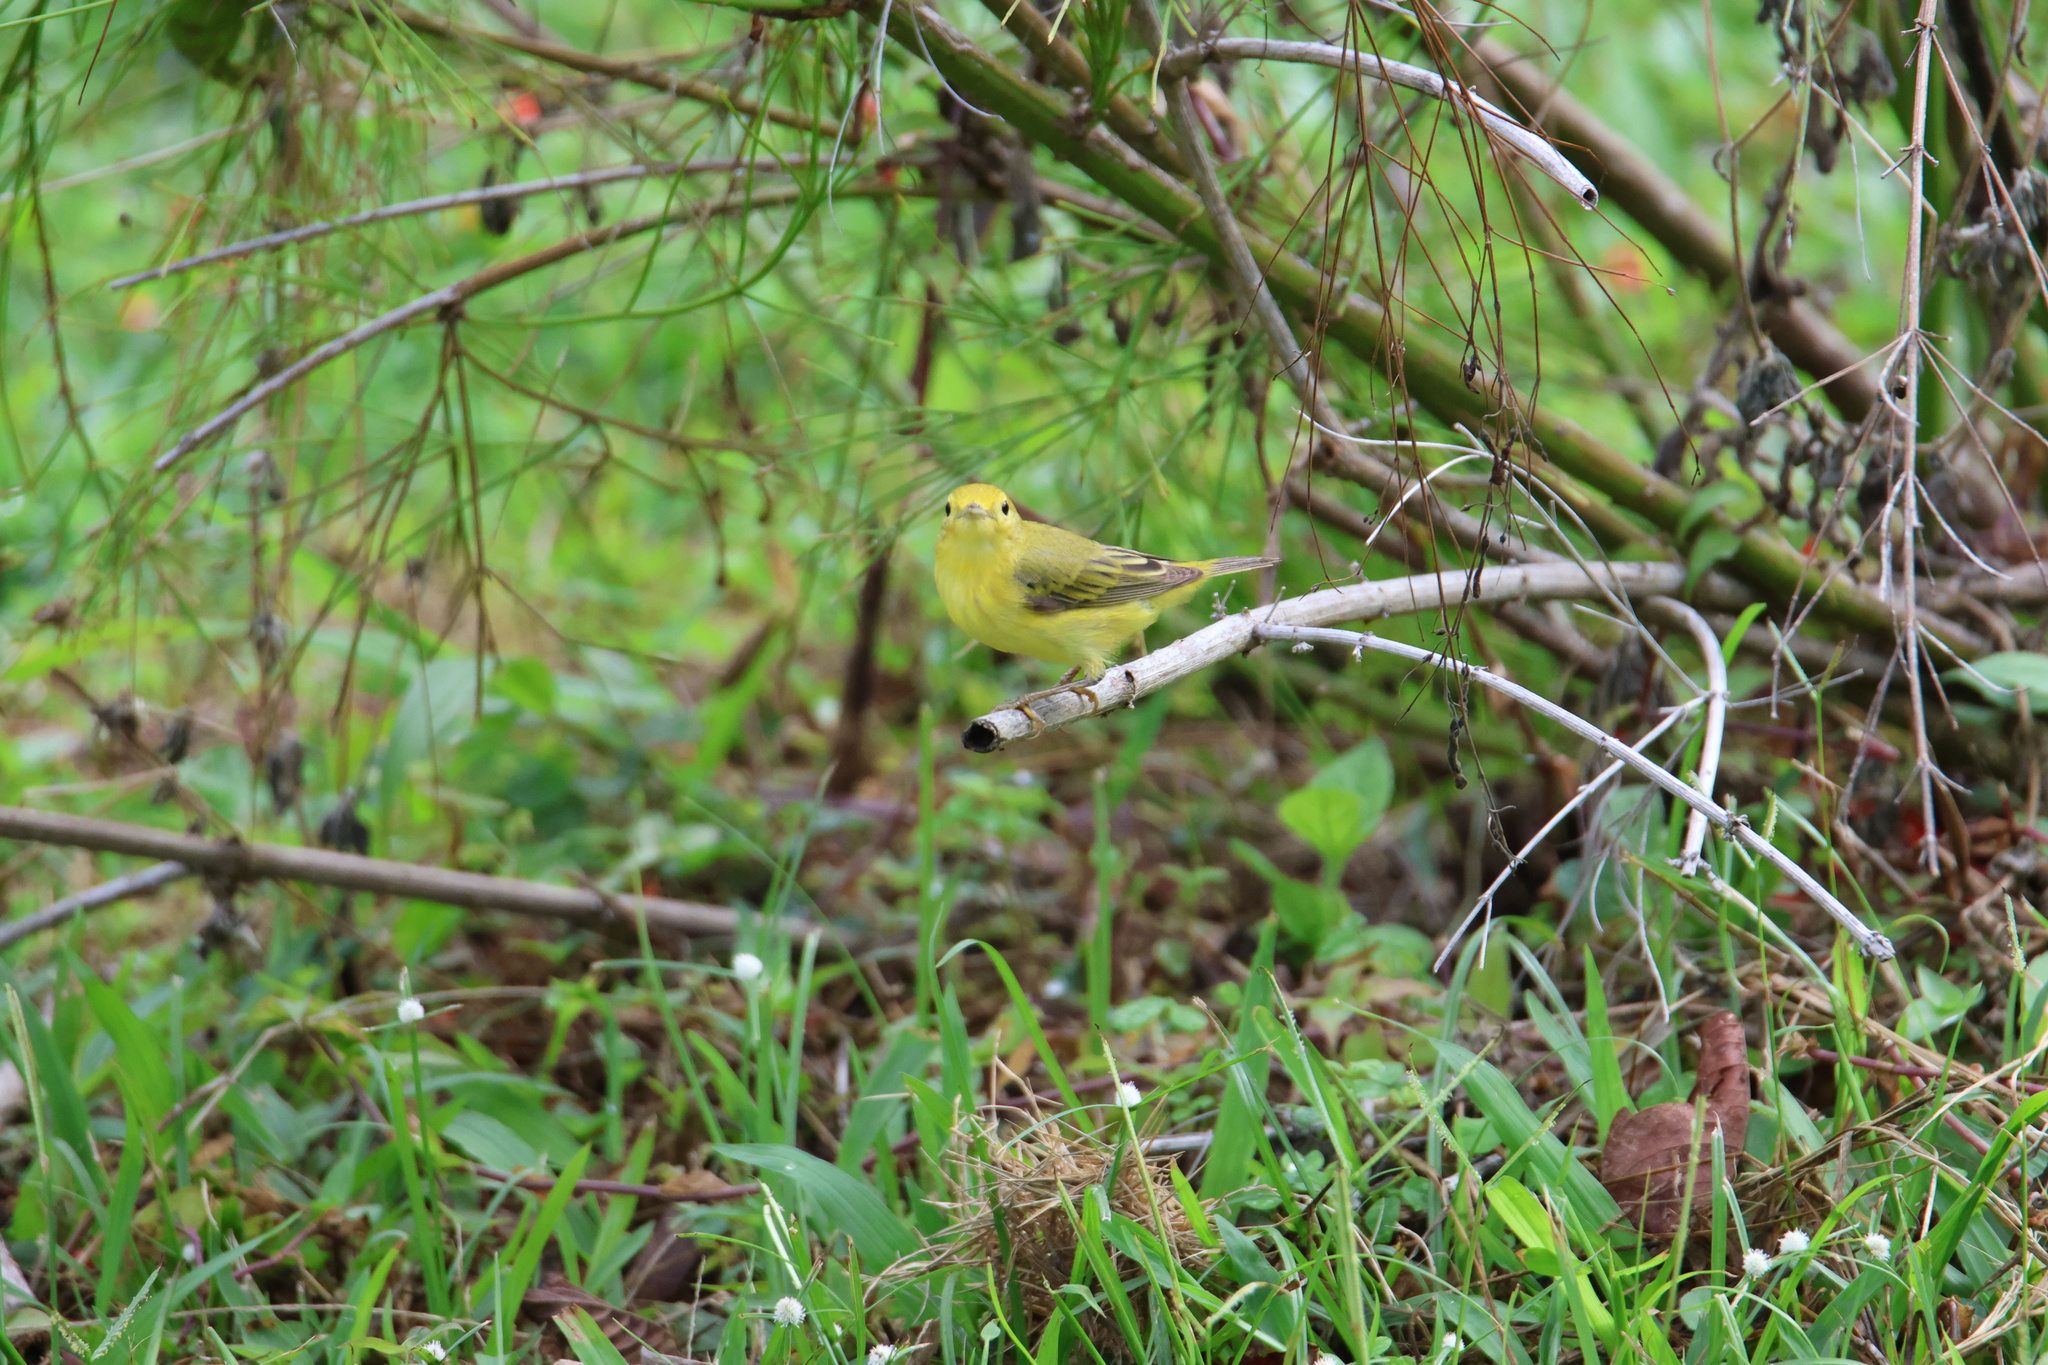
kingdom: Animalia
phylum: Chordata
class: Aves
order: Passeriformes
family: Parulidae
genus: Setophaga
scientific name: Setophaga petechia
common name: Yellow warbler
